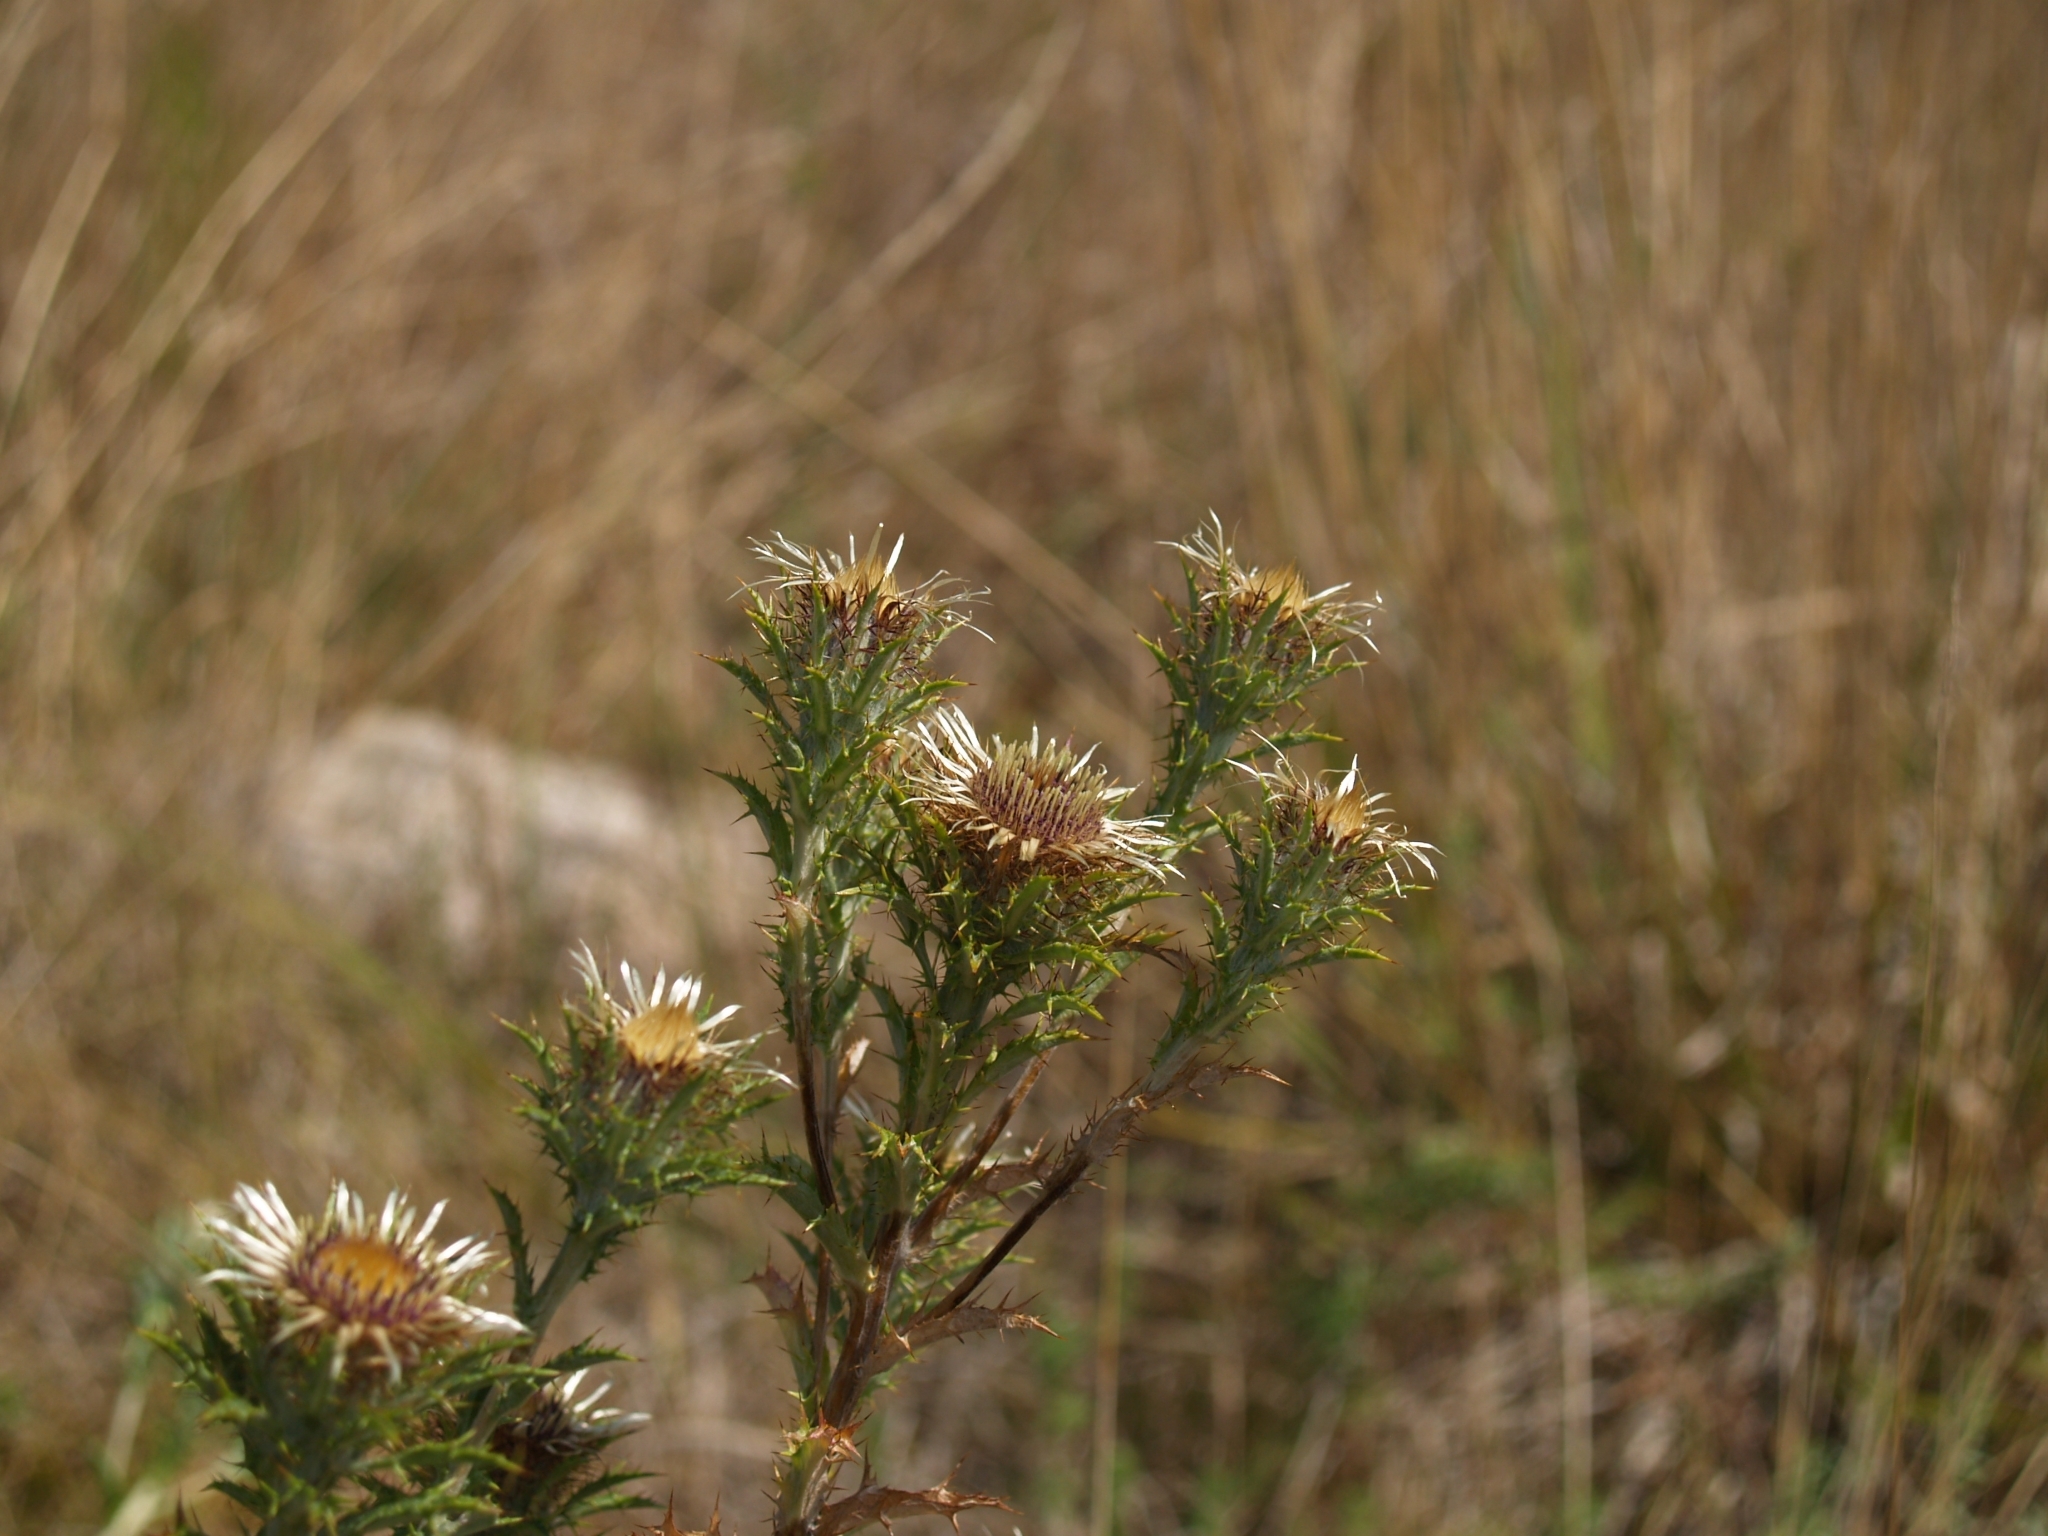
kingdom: Plantae
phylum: Tracheophyta
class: Magnoliopsida
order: Asterales
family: Asteraceae
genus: Carlina
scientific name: Carlina vulgaris
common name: Carline thistle
